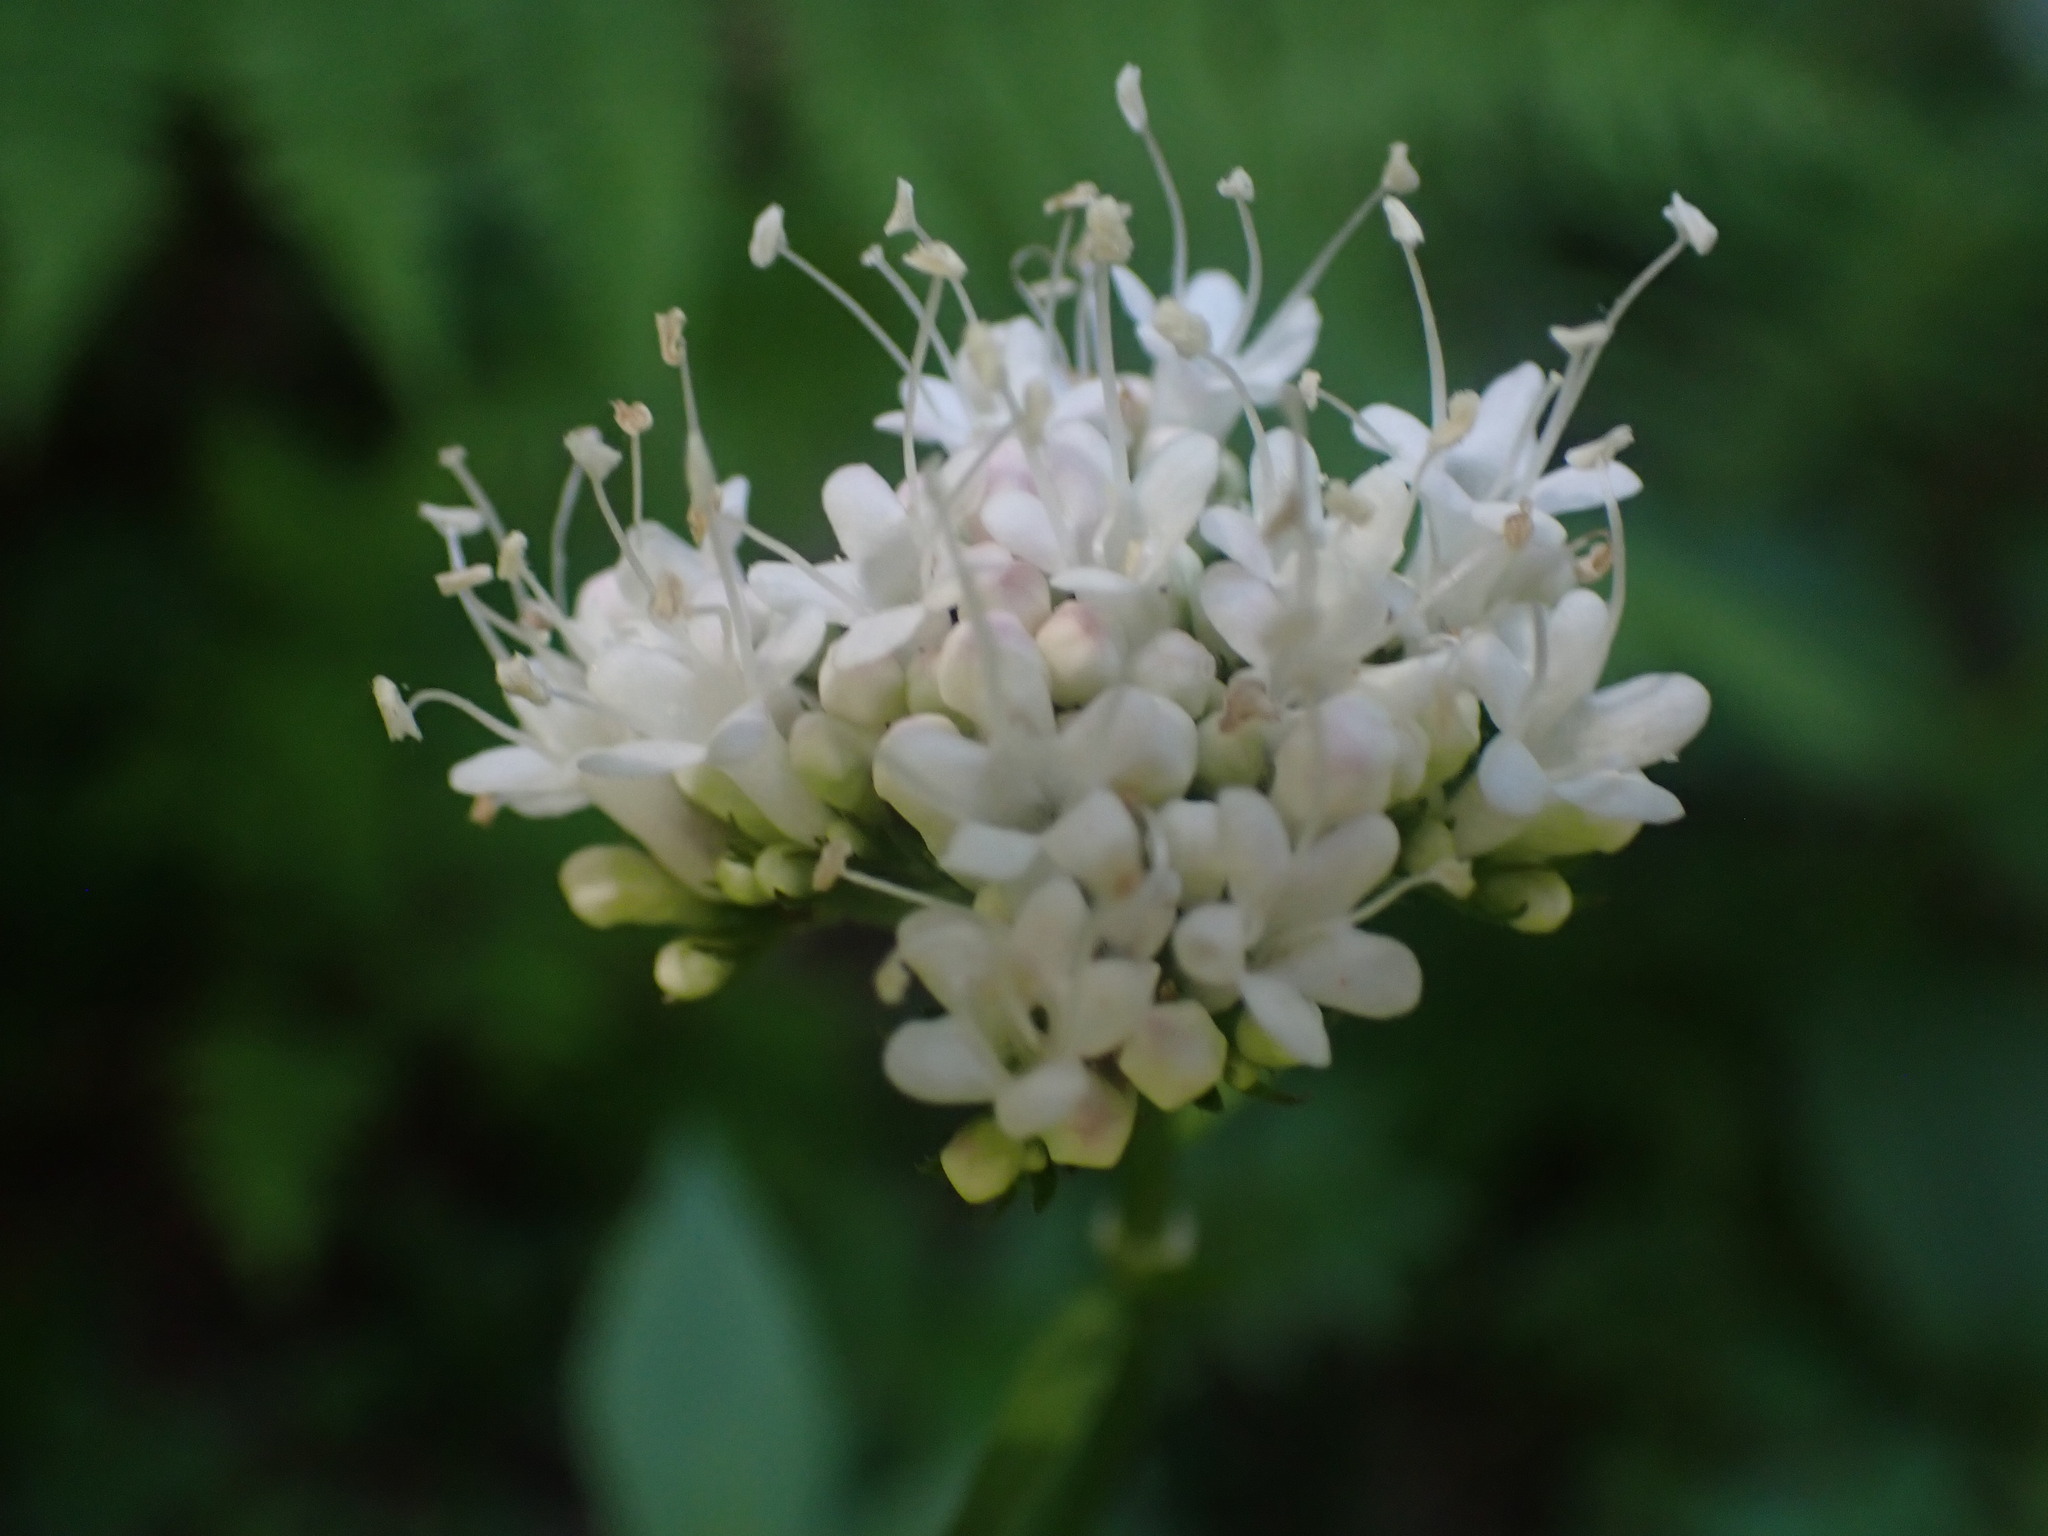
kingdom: Plantae
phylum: Tracheophyta
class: Magnoliopsida
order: Dipsacales
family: Caprifoliaceae
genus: Valeriana
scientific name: Valeriana sitchensis
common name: Pacific valerian
